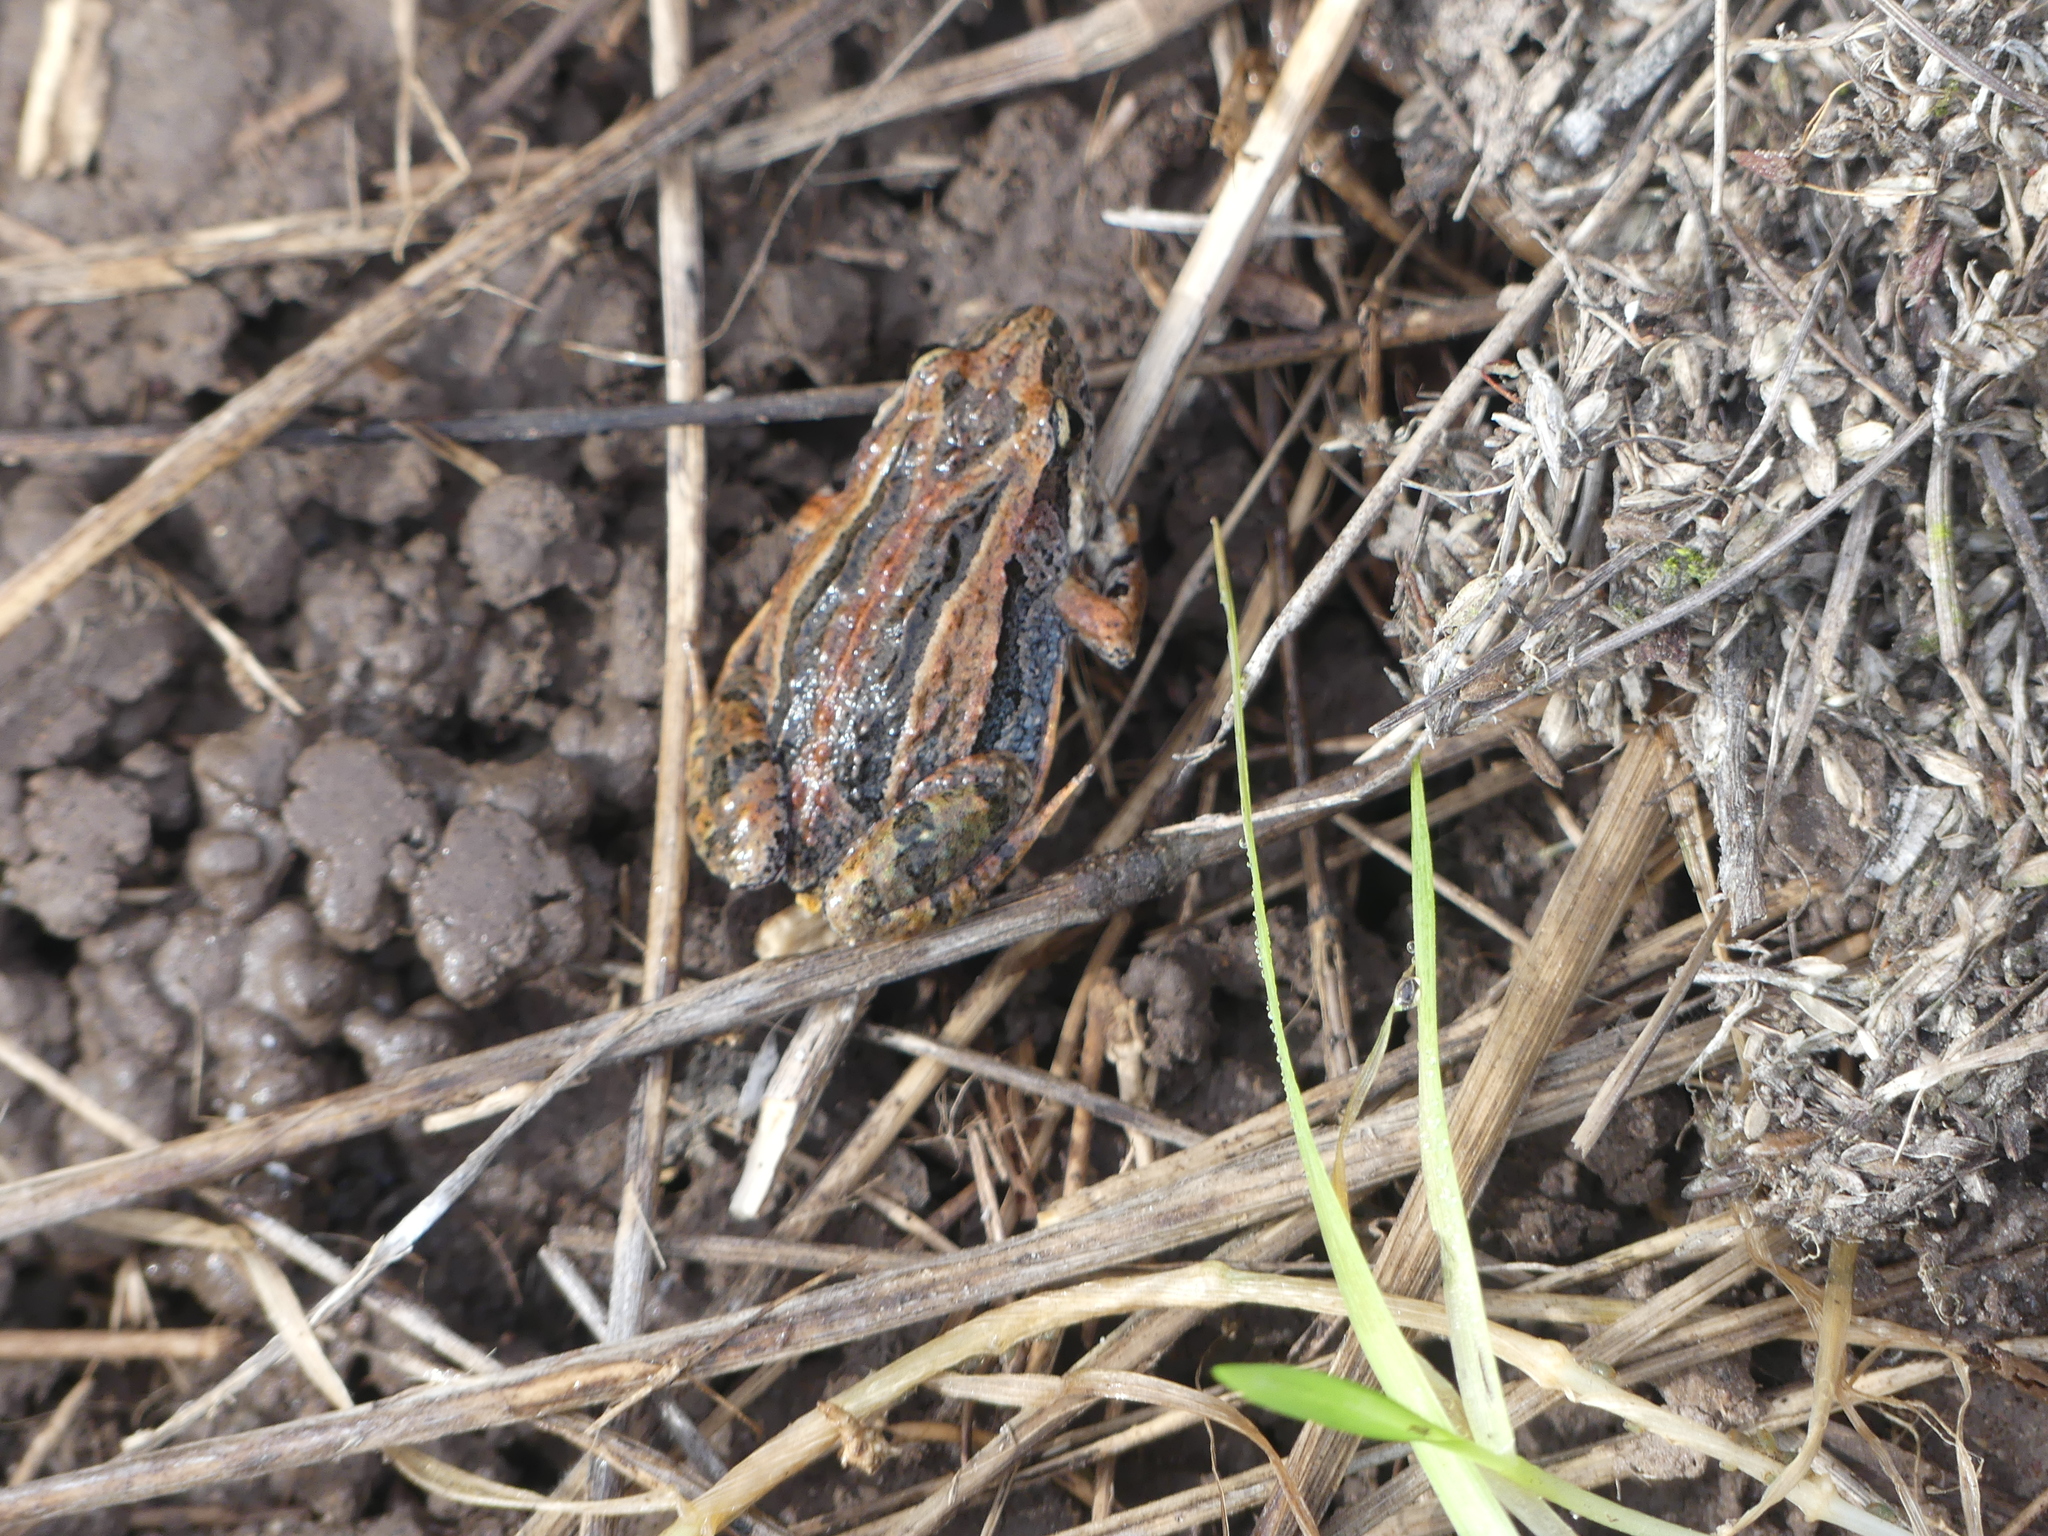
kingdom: Animalia
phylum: Chordata
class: Amphibia
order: Anura
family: Myobatrachidae
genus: Crinia
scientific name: Crinia signifera
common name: Brown froglet
